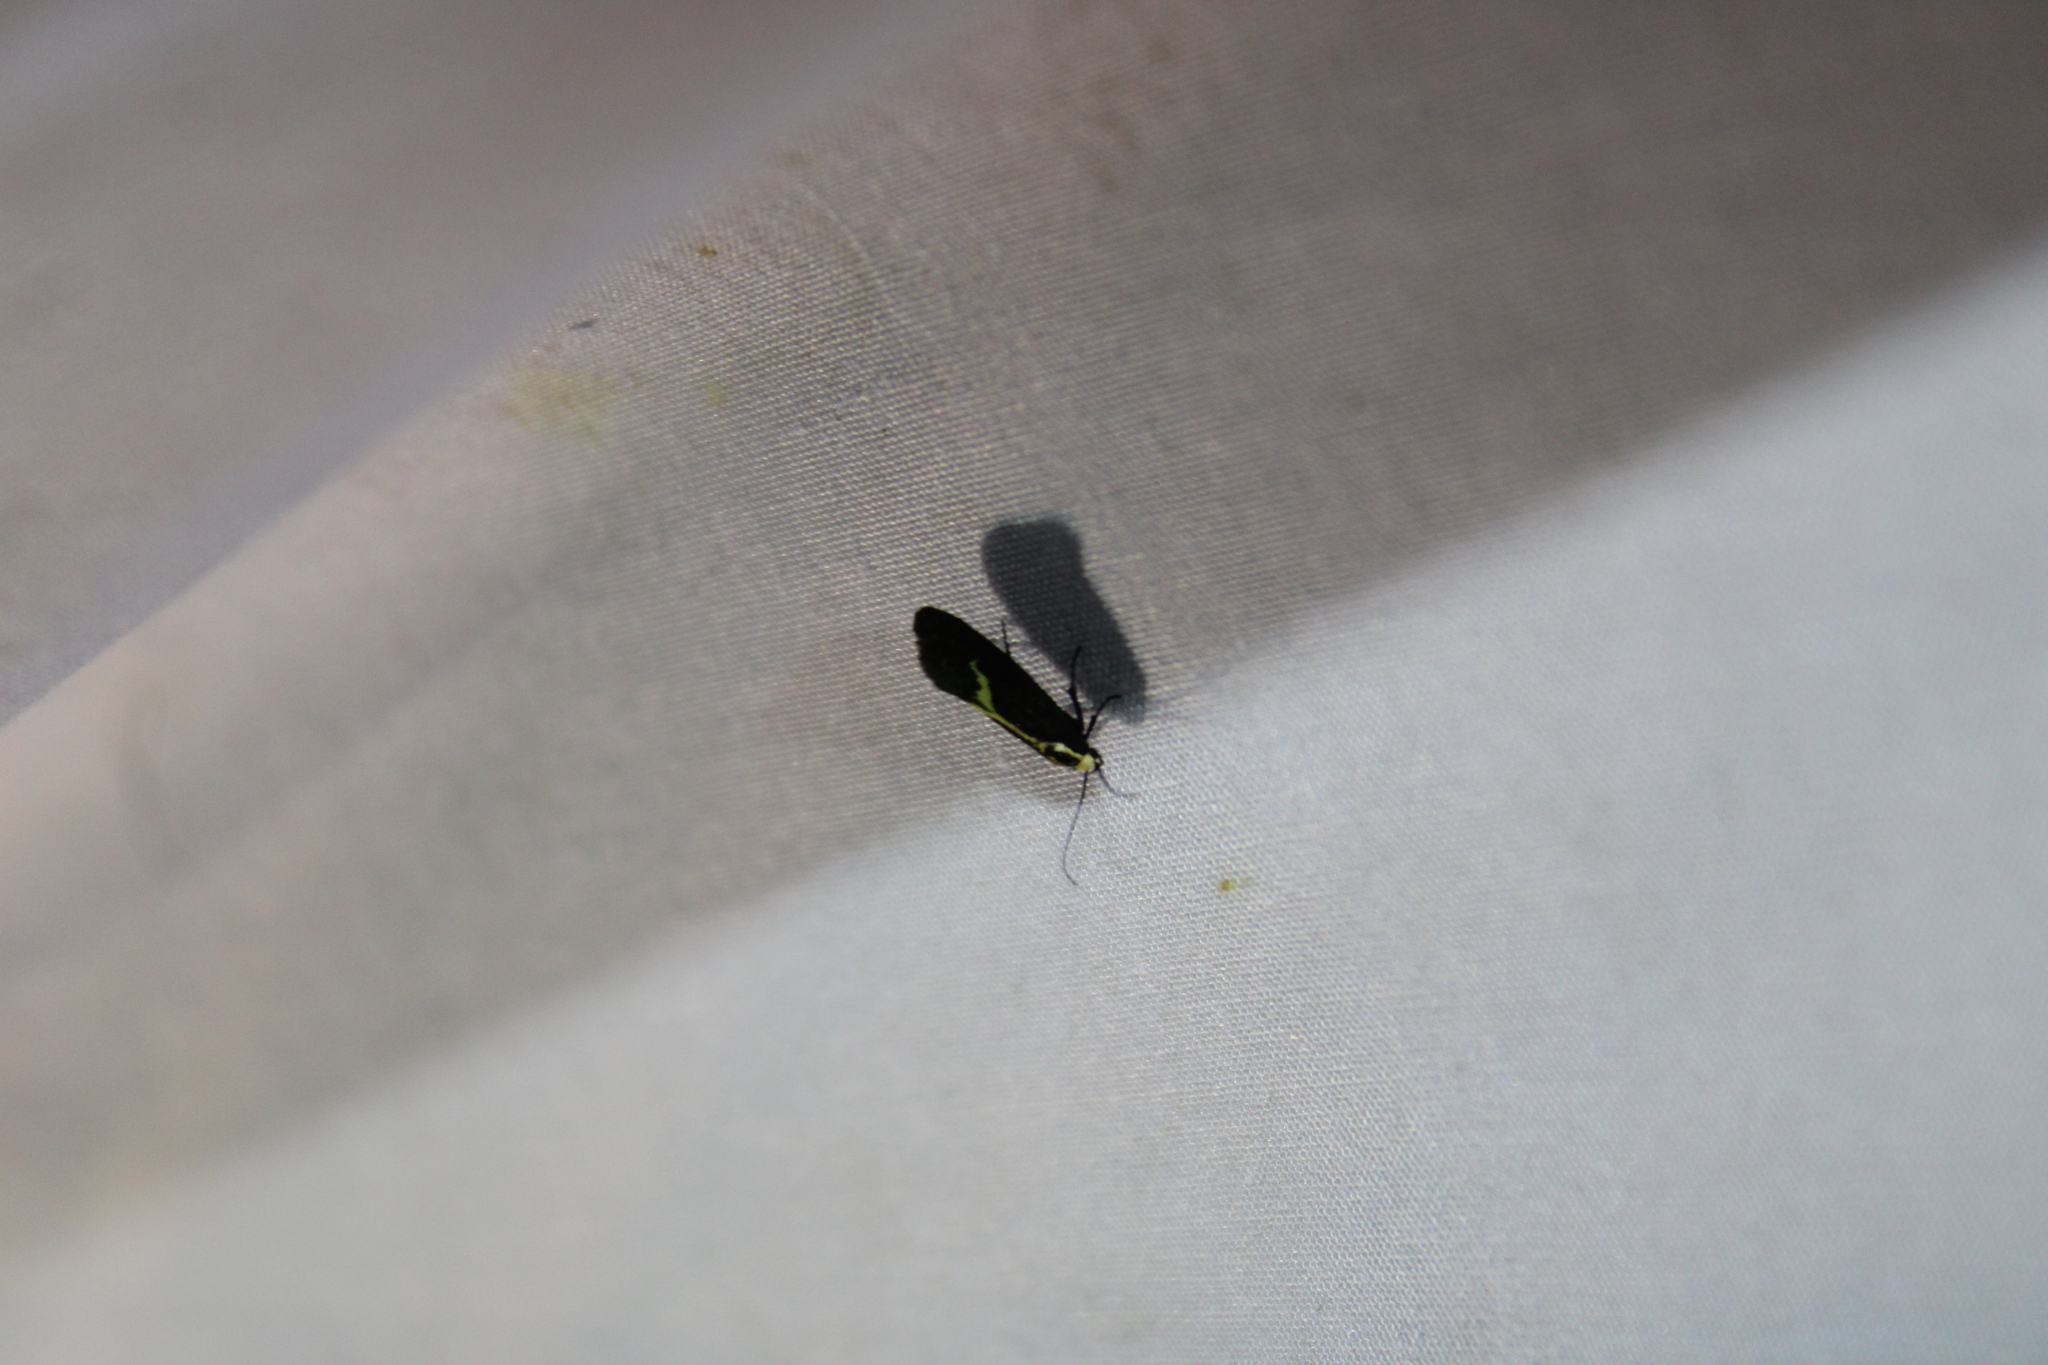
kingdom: Animalia
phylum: Arthropoda
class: Insecta
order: Lepidoptera
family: Oecophoridae
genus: Polix
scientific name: Polix coloradella
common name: Skunk moth
